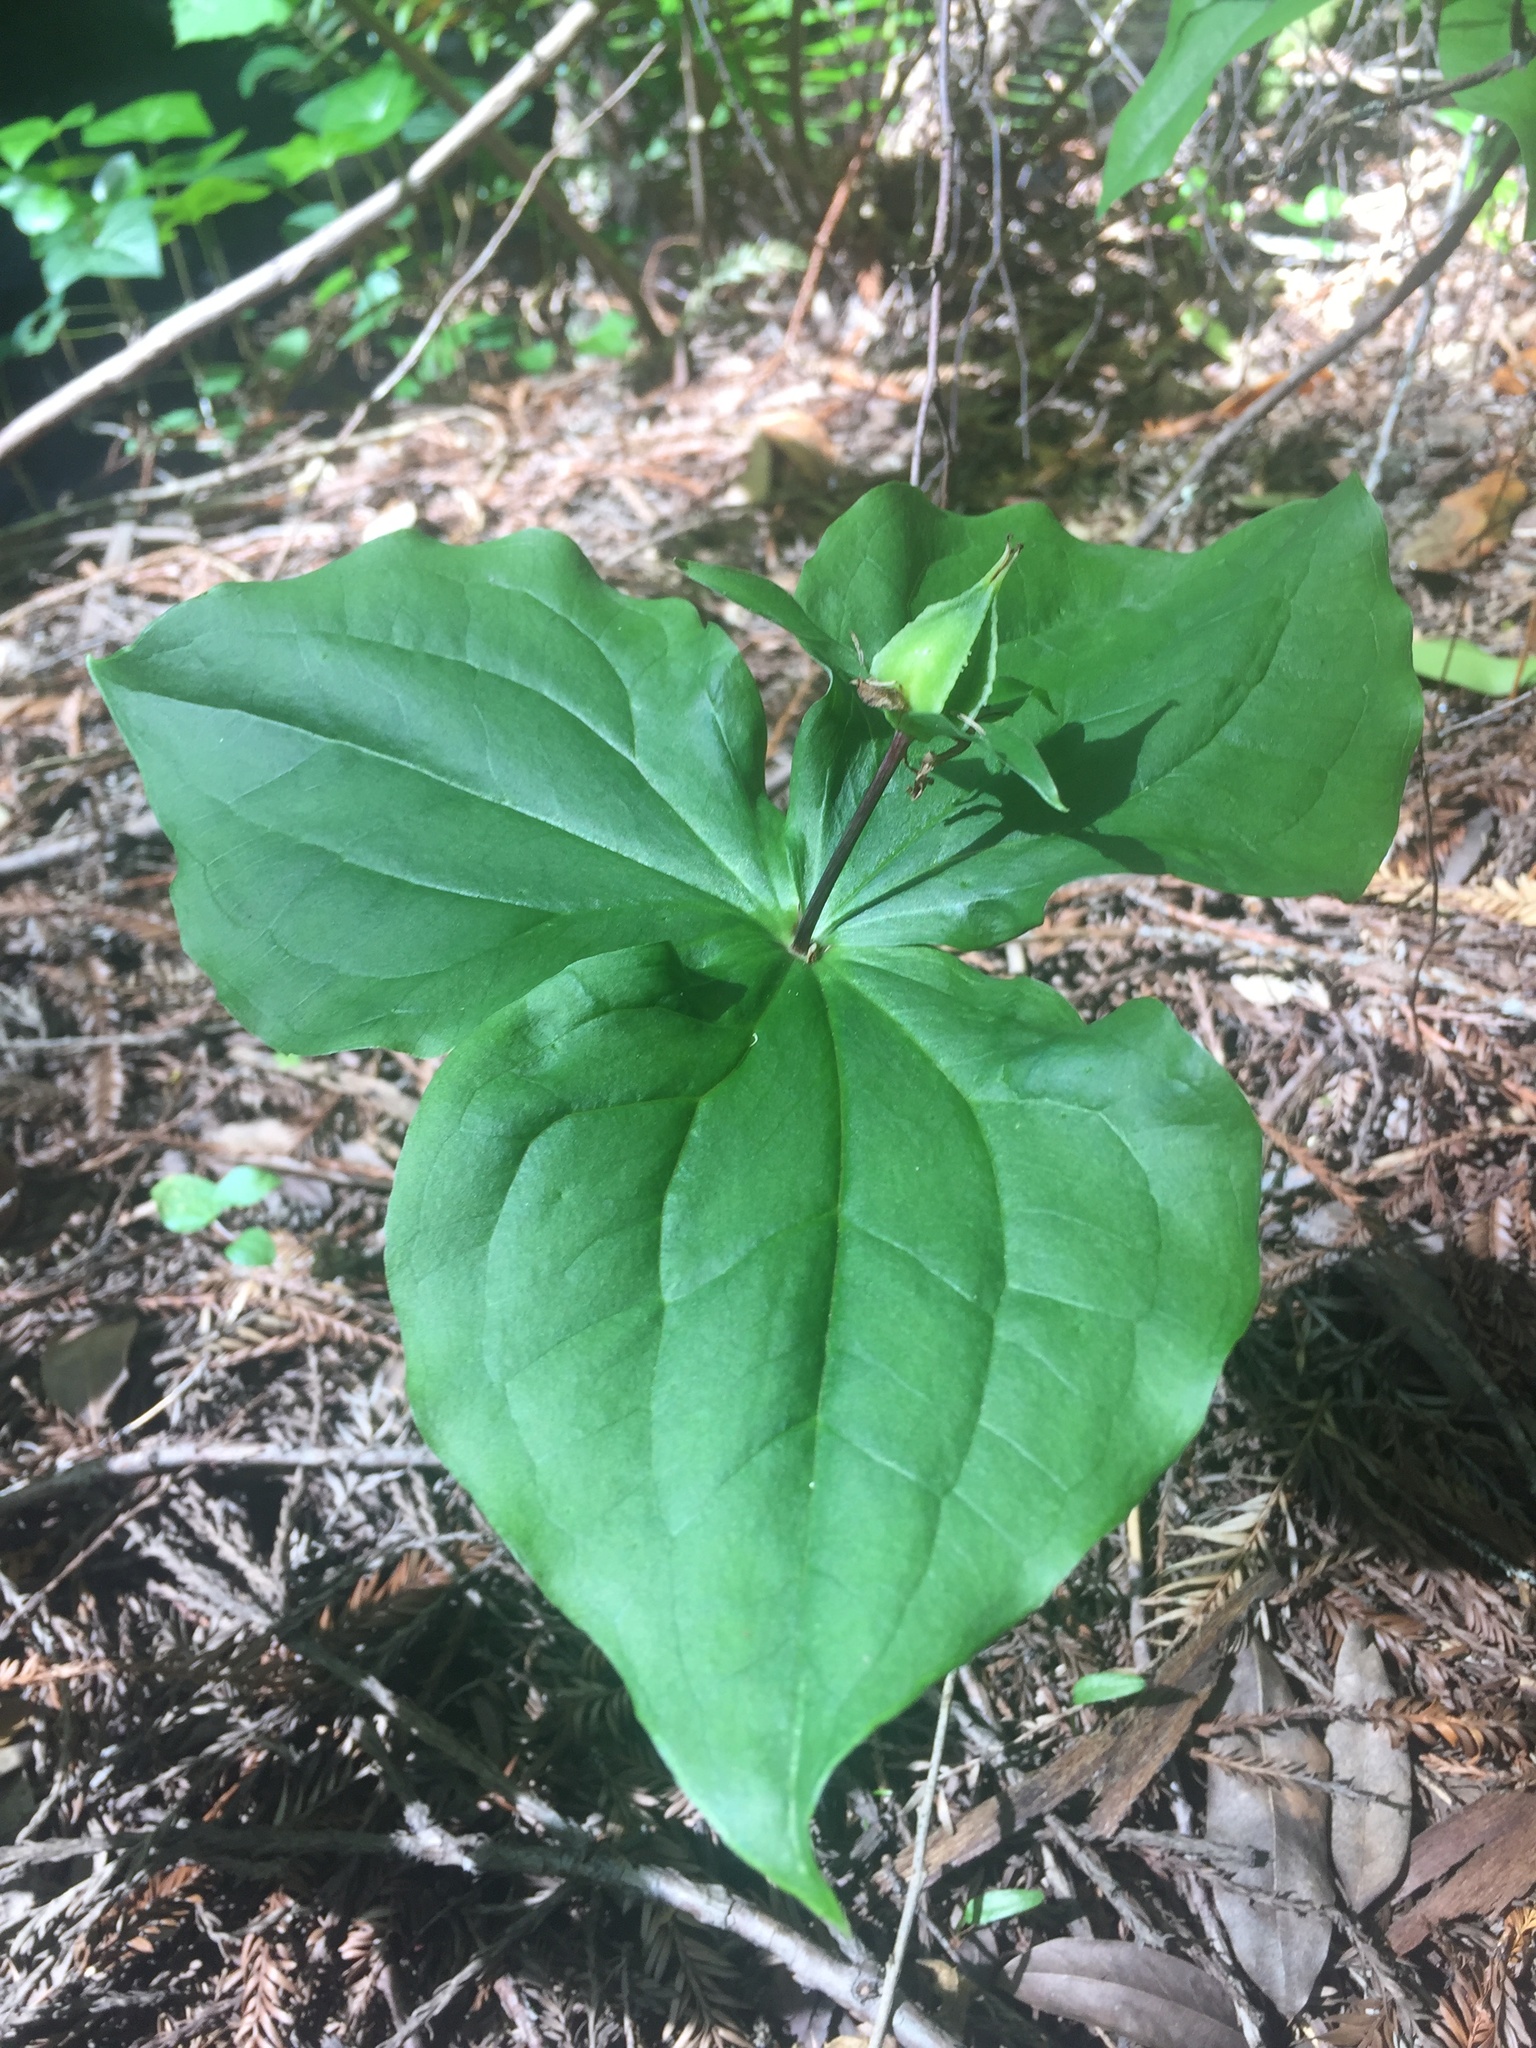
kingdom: Plantae
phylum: Tracheophyta
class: Liliopsida
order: Liliales
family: Melanthiaceae
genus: Trillium
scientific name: Trillium ovatum
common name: Pacific trillium
